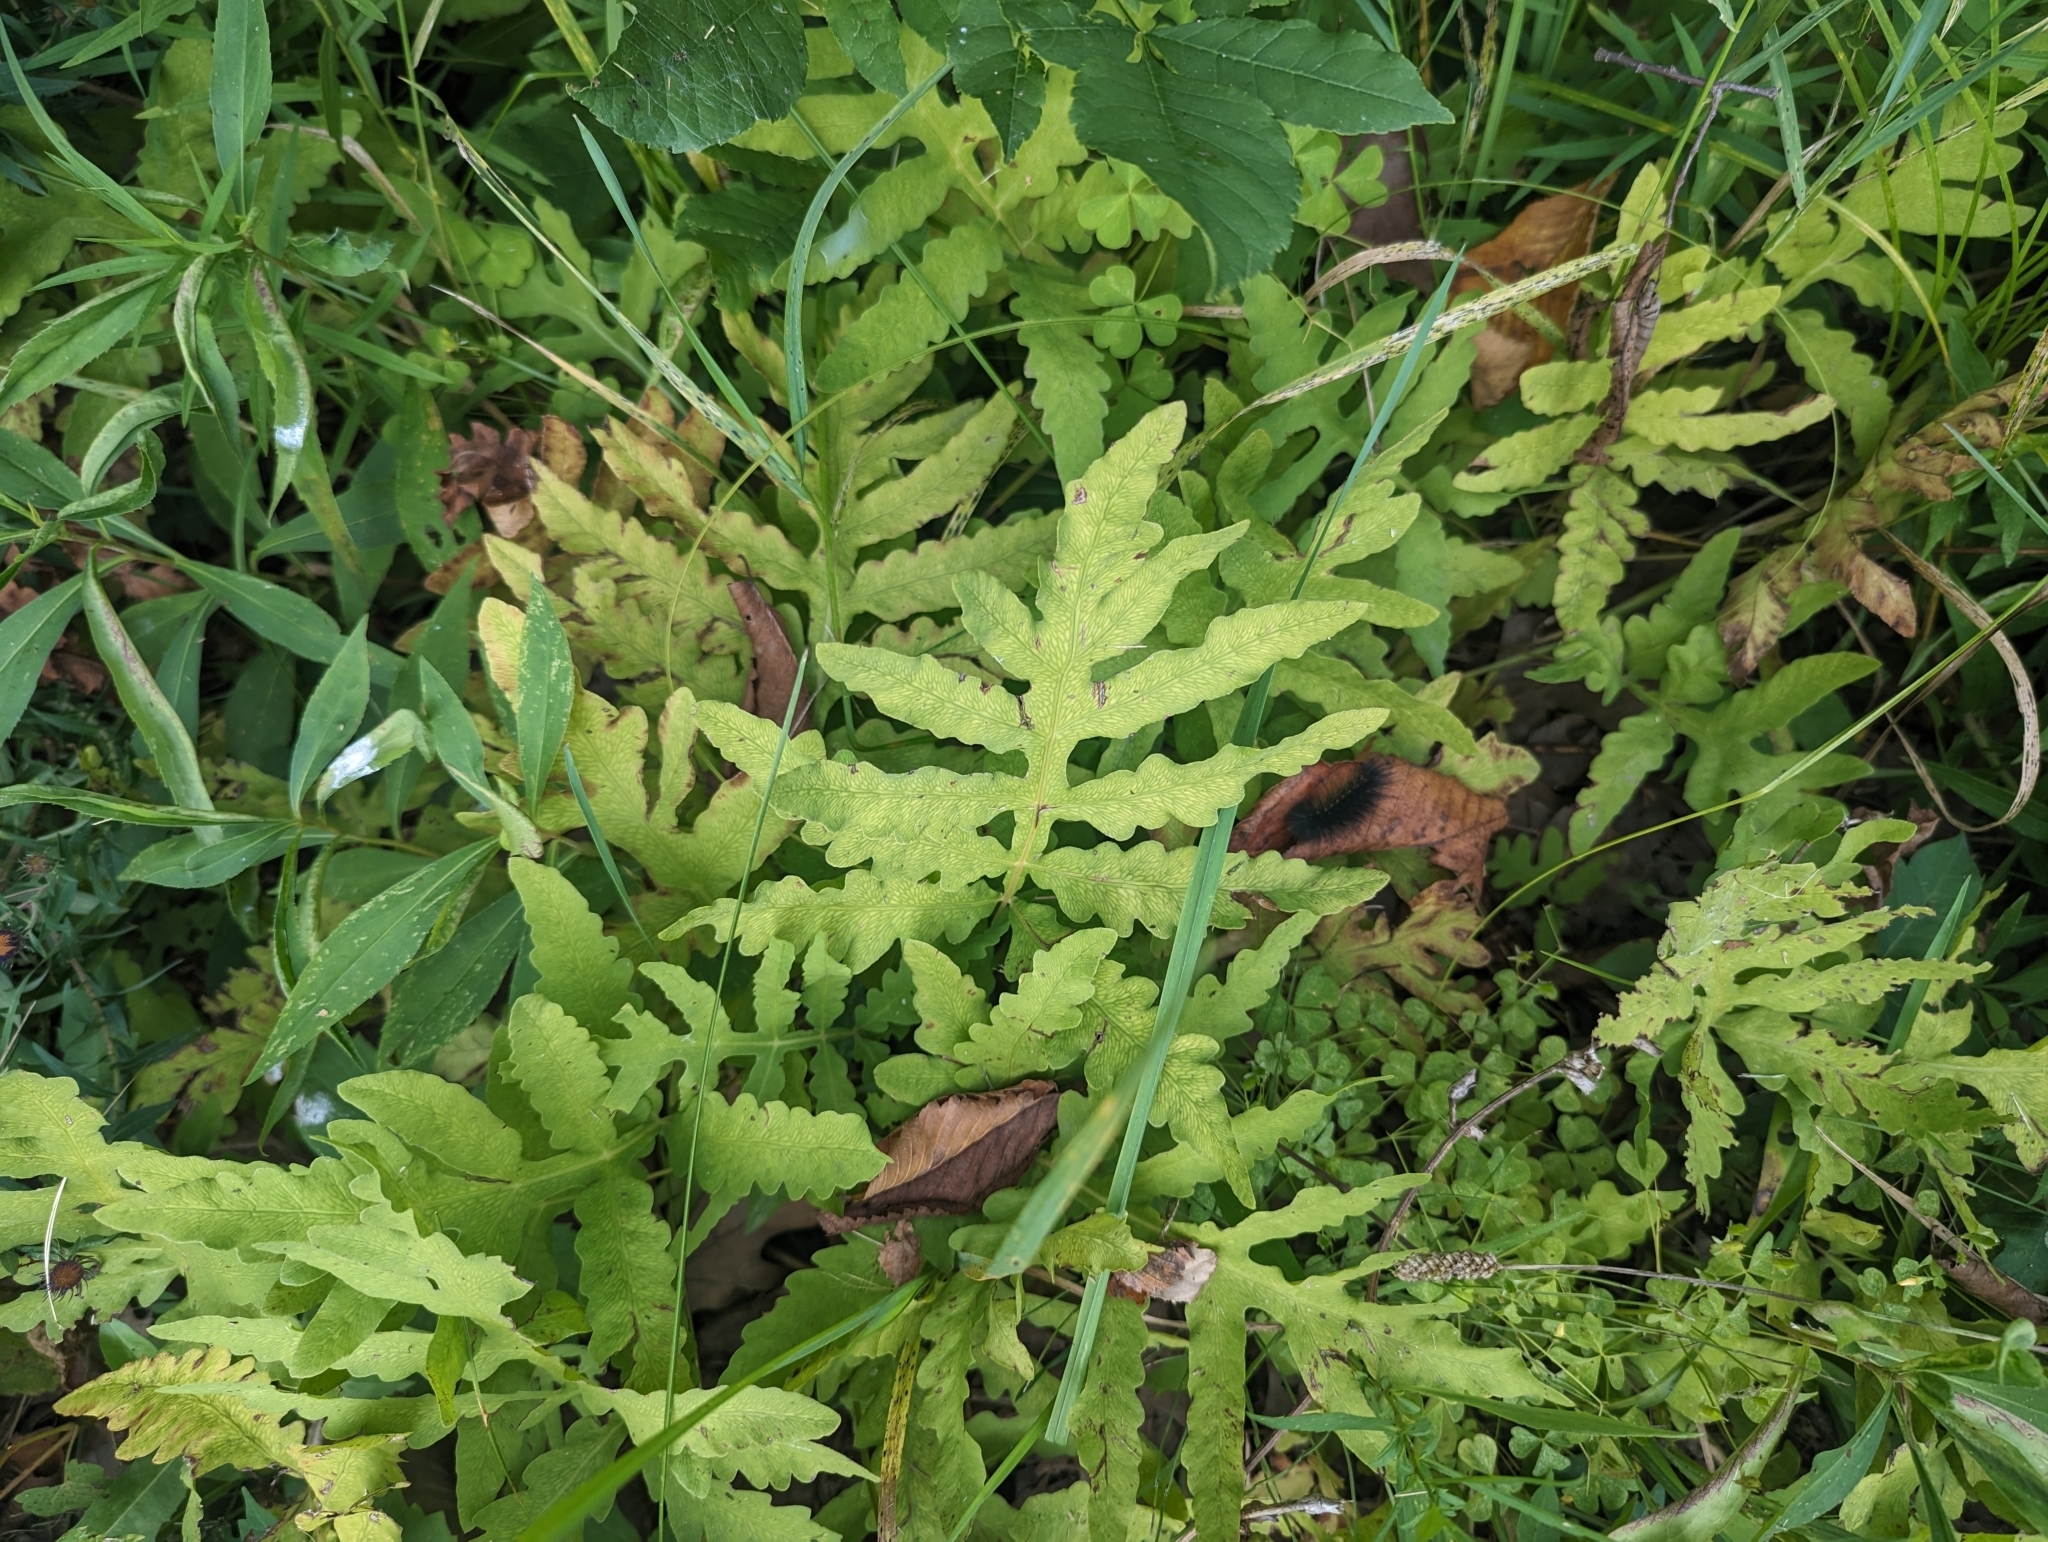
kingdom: Plantae
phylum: Tracheophyta
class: Polypodiopsida
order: Polypodiales
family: Onocleaceae
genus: Onoclea
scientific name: Onoclea sensibilis
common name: Sensitive fern
